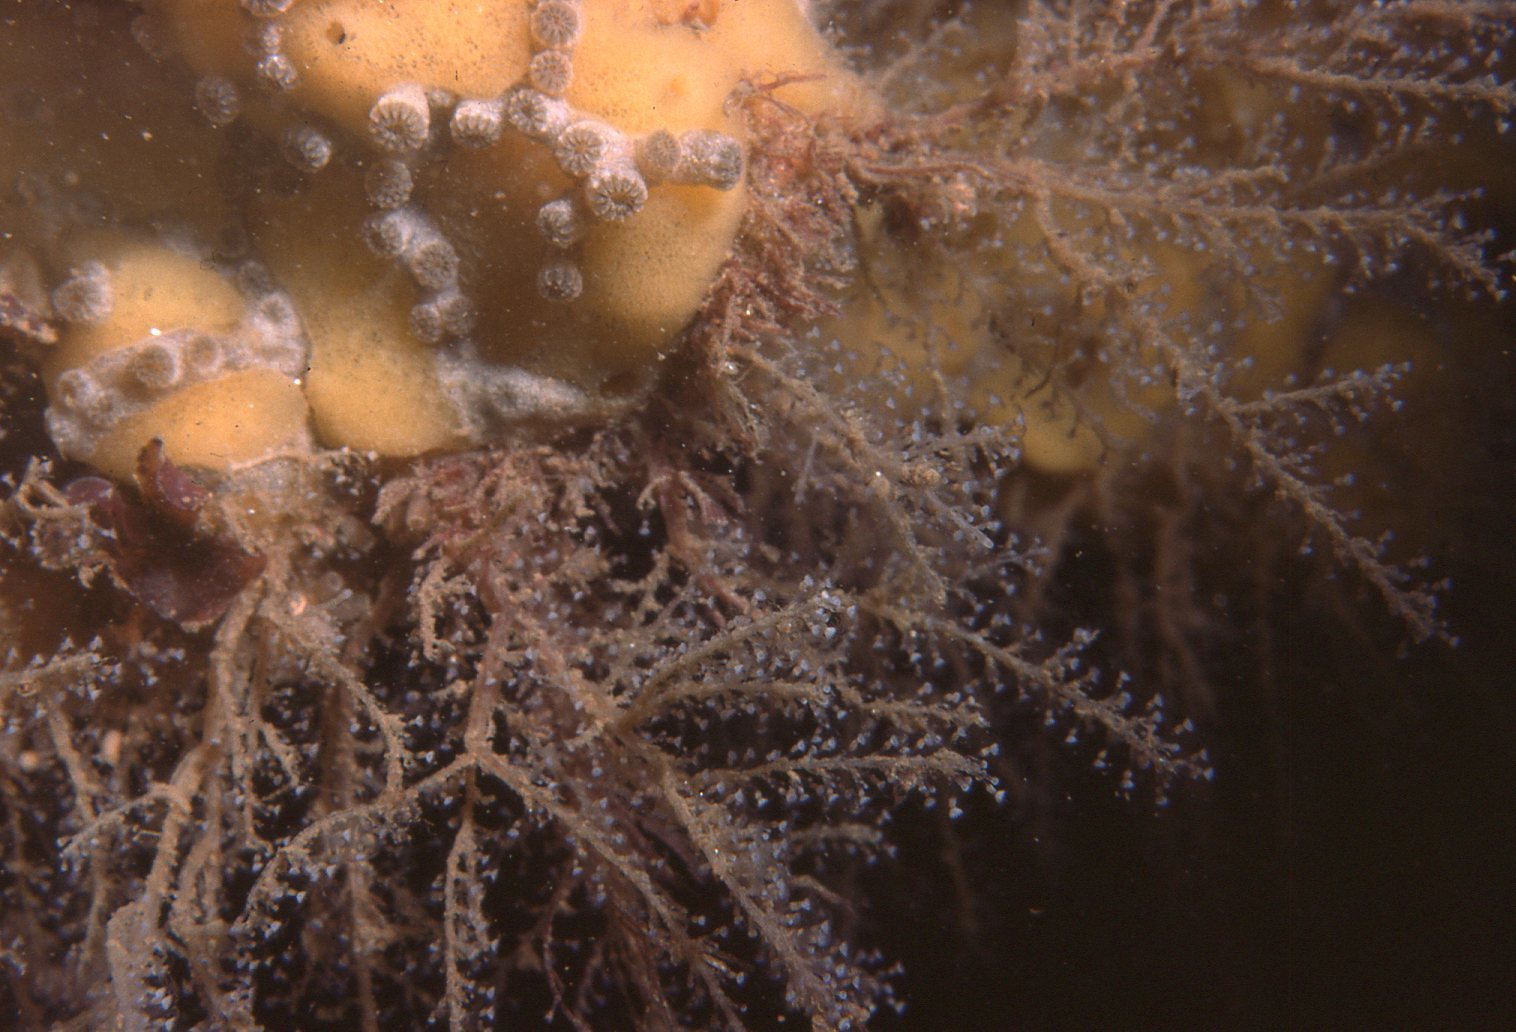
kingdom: Animalia
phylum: Cnidaria
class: Hydrozoa
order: Leptothecata
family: Phylactothecidae
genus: Hydrodendron
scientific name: Hydrodendron australe
